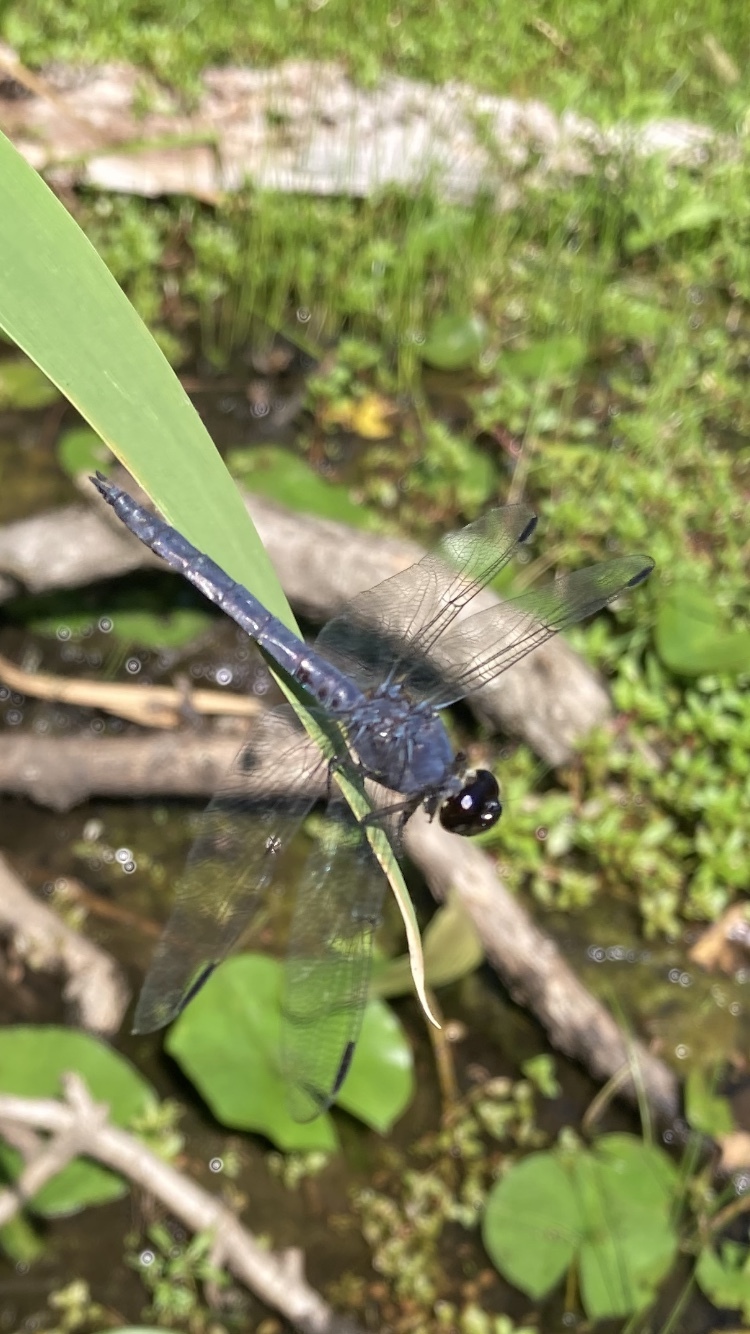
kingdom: Animalia
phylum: Arthropoda
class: Insecta
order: Odonata
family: Libellulidae
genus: Libellula
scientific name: Libellula incesta
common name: Slaty skimmer
